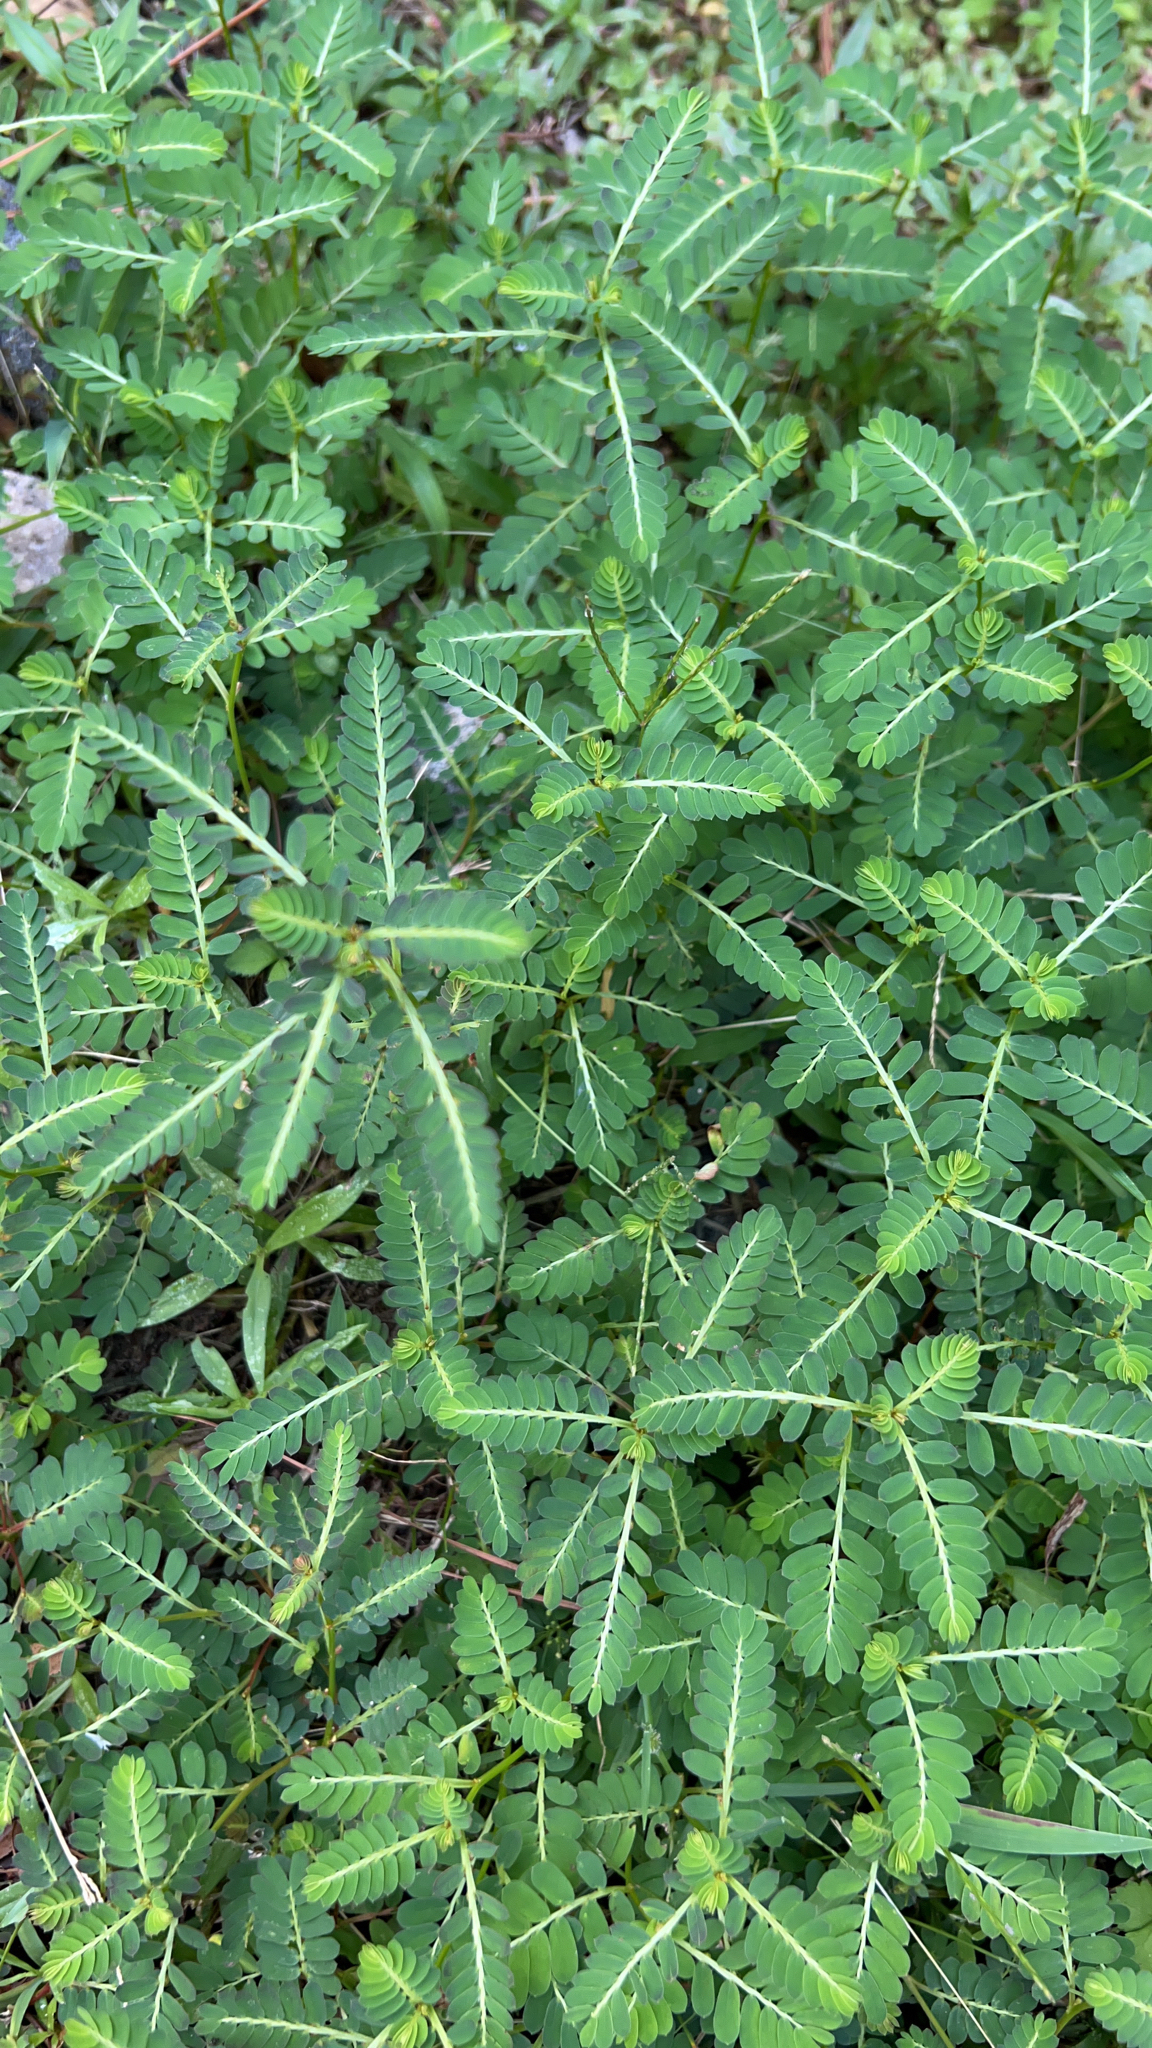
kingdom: Plantae
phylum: Tracheophyta
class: Magnoliopsida
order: Malpighiales
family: Phyllanthaceae
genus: Phyllanthus
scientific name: Phyllanthus urinaria
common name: Chamber bitter
